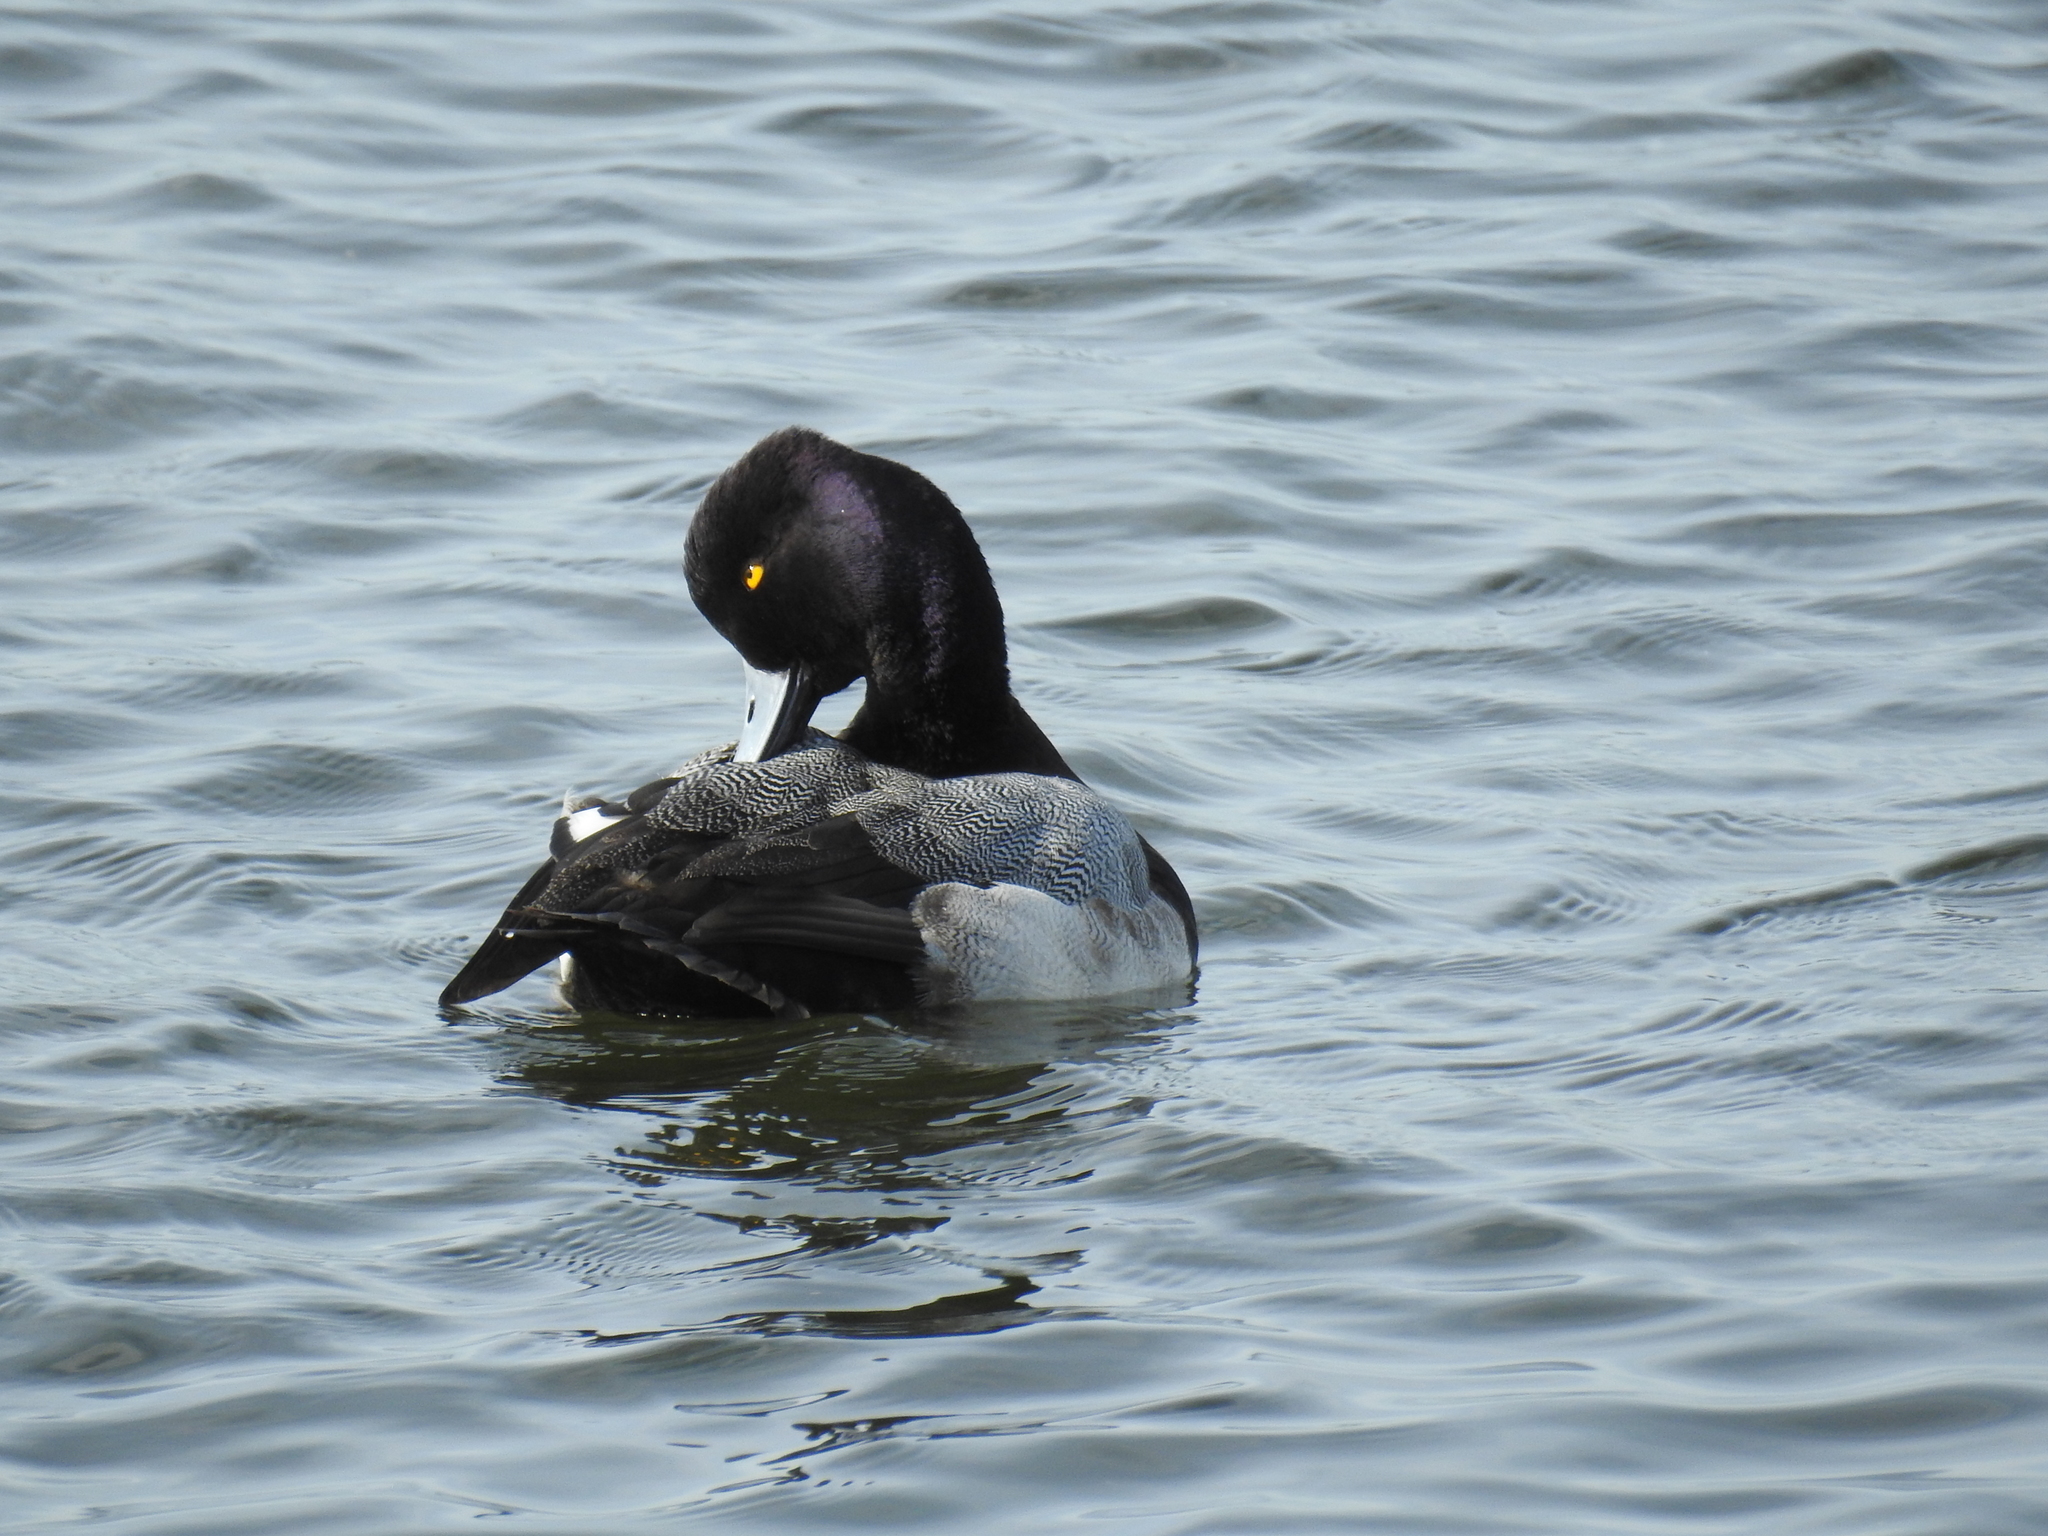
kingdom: Animalia
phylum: Chordata
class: Aves
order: Anseriformes
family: Anatidae
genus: Aythya
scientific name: Aythya affinis
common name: Lesser scaup
